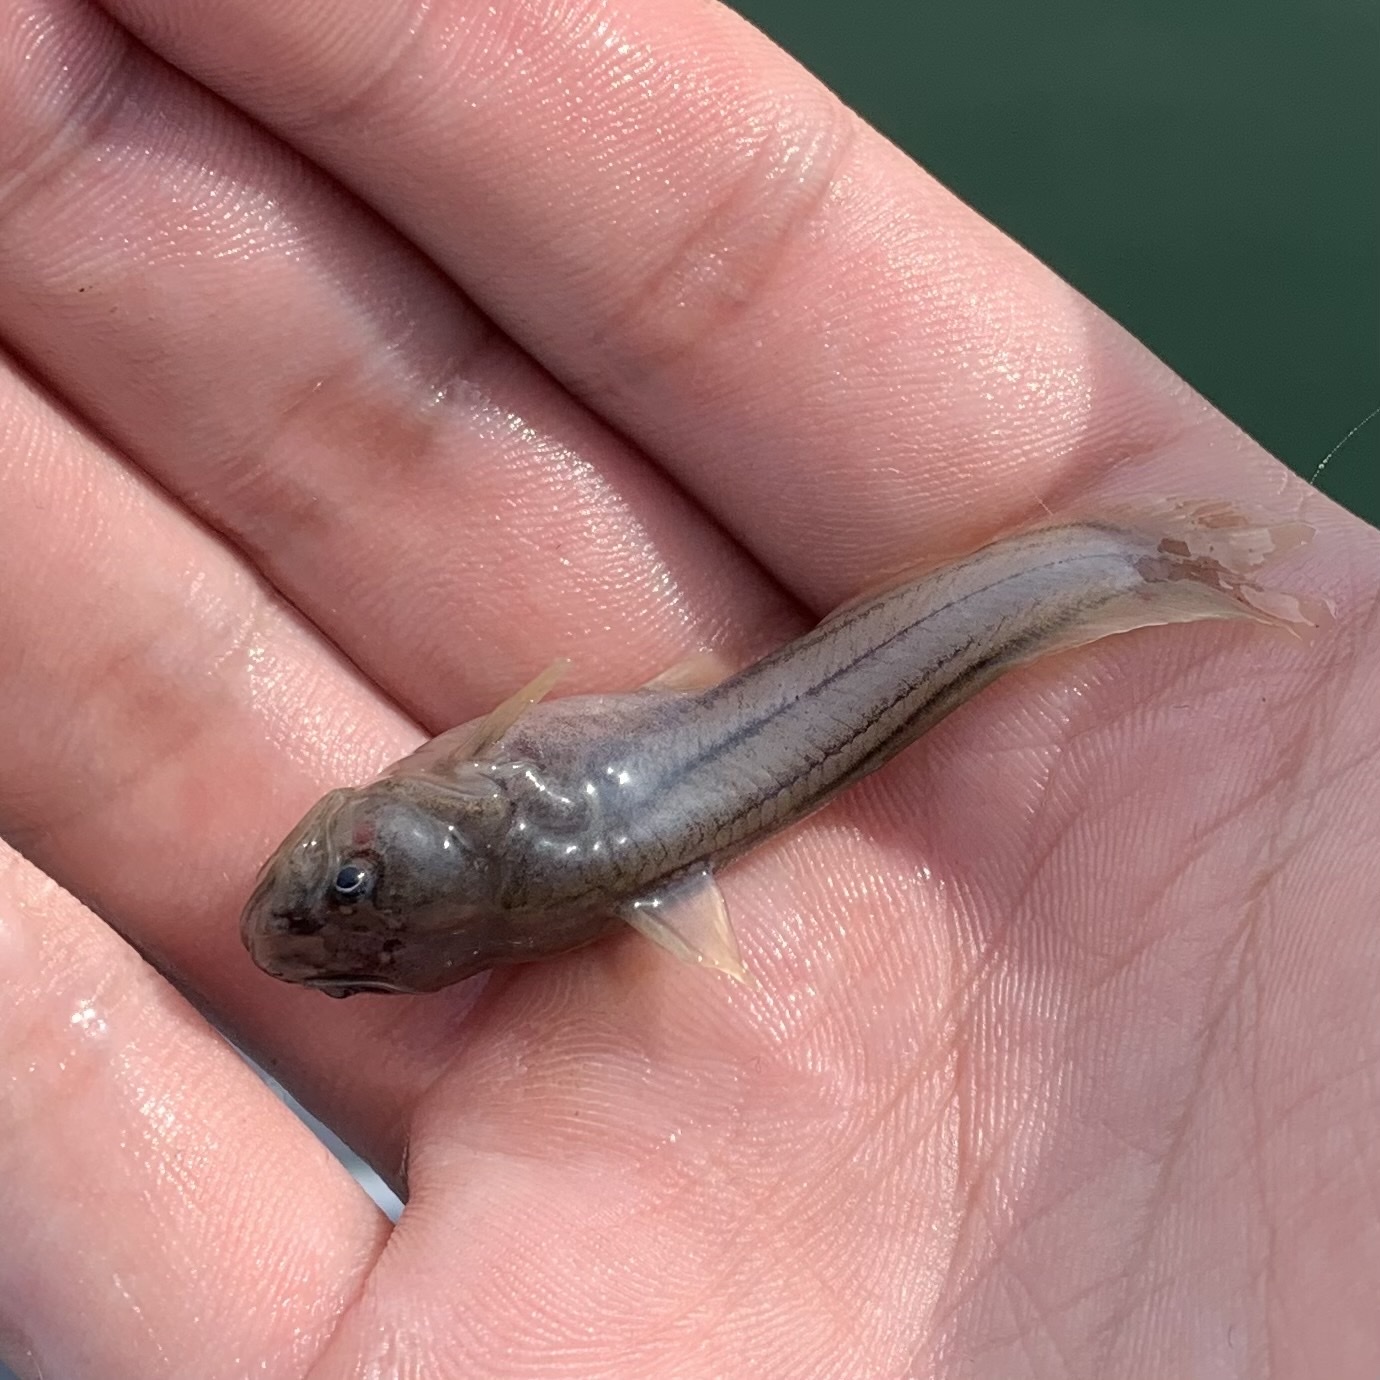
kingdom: Animalia
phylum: Chordata
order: Siluriformes
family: Ictaluridae
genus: Noturus
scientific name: Noturus gyrinus
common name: Tadpole madtom
